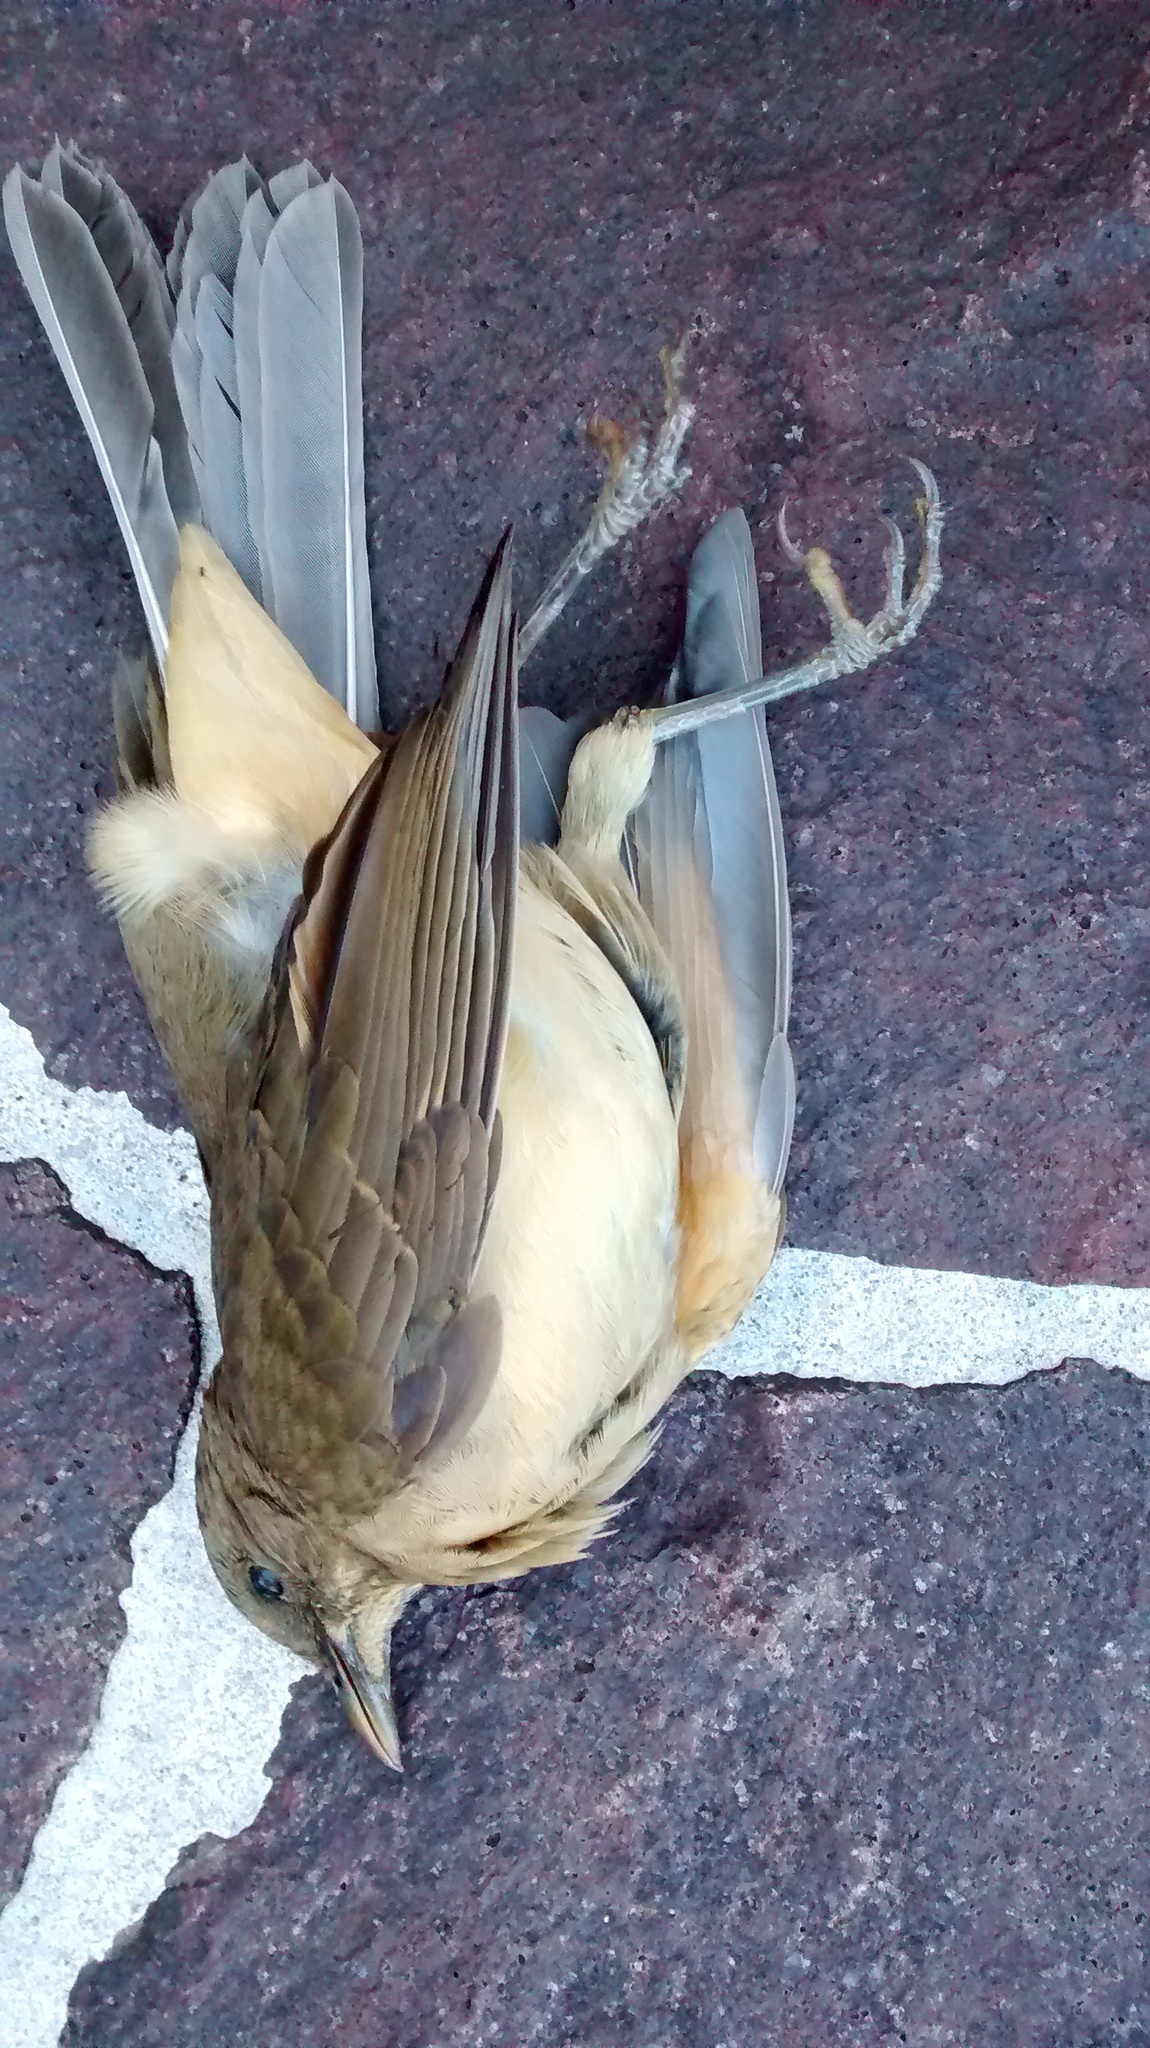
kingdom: Animalia
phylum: Chordata
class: Aves
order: Passeriformes
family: Turdidae
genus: Turdus
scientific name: Turdus grayi
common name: Clay-colored thrush
